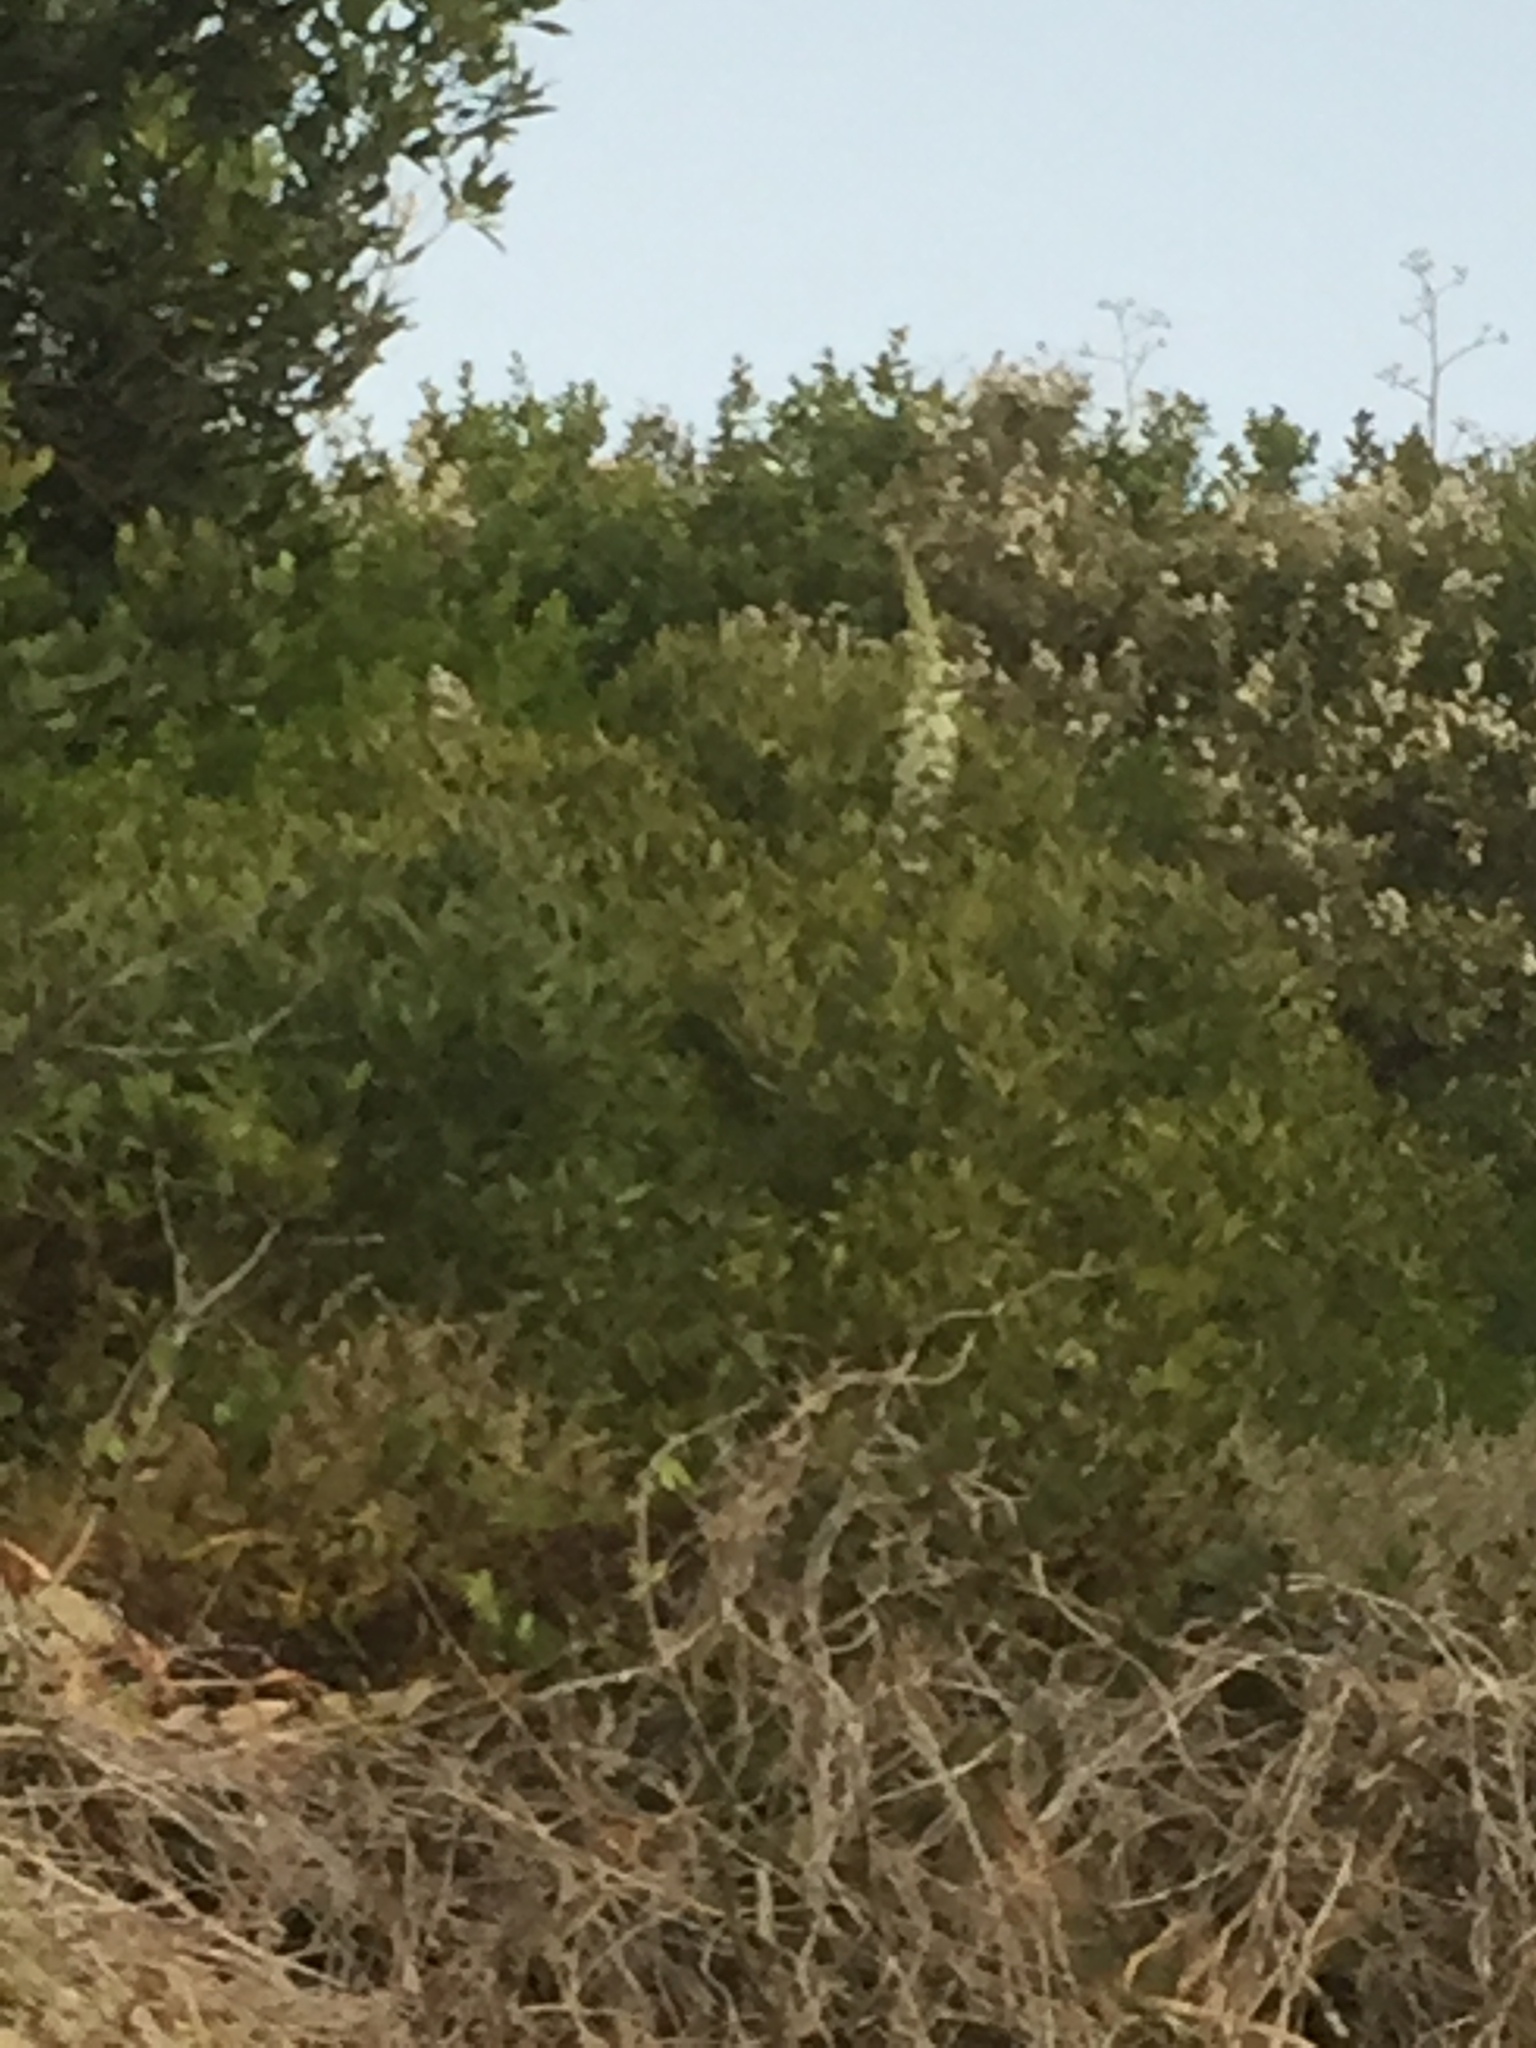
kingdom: Plantae
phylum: Tracheophyta
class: Liliopsida
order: Asparagales
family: Asparagaceae
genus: Drimia
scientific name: Drimia capensis
